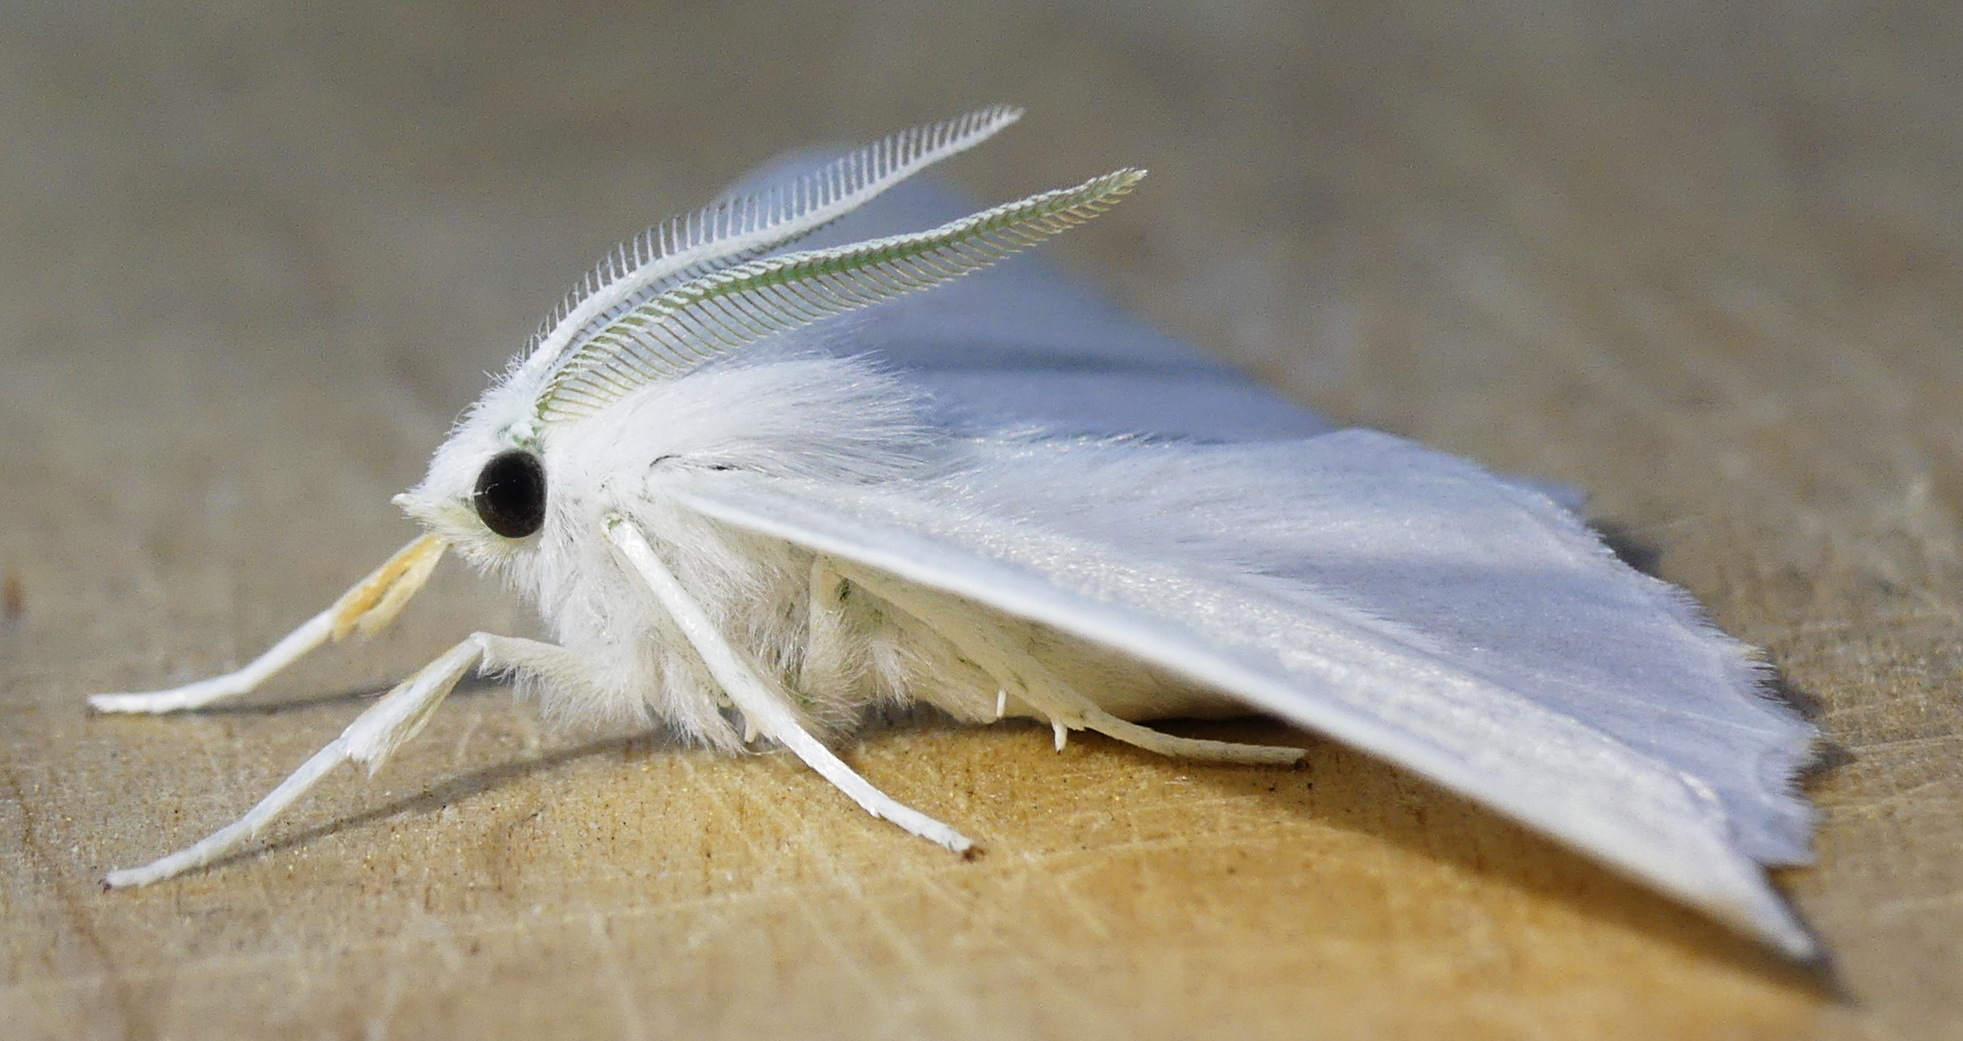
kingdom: Animalia
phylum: Arthropoda
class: Insecta
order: Lepidoptera
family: Geometridae
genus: Ennomos
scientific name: Ennomos subsignaria
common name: Elm spanworm
